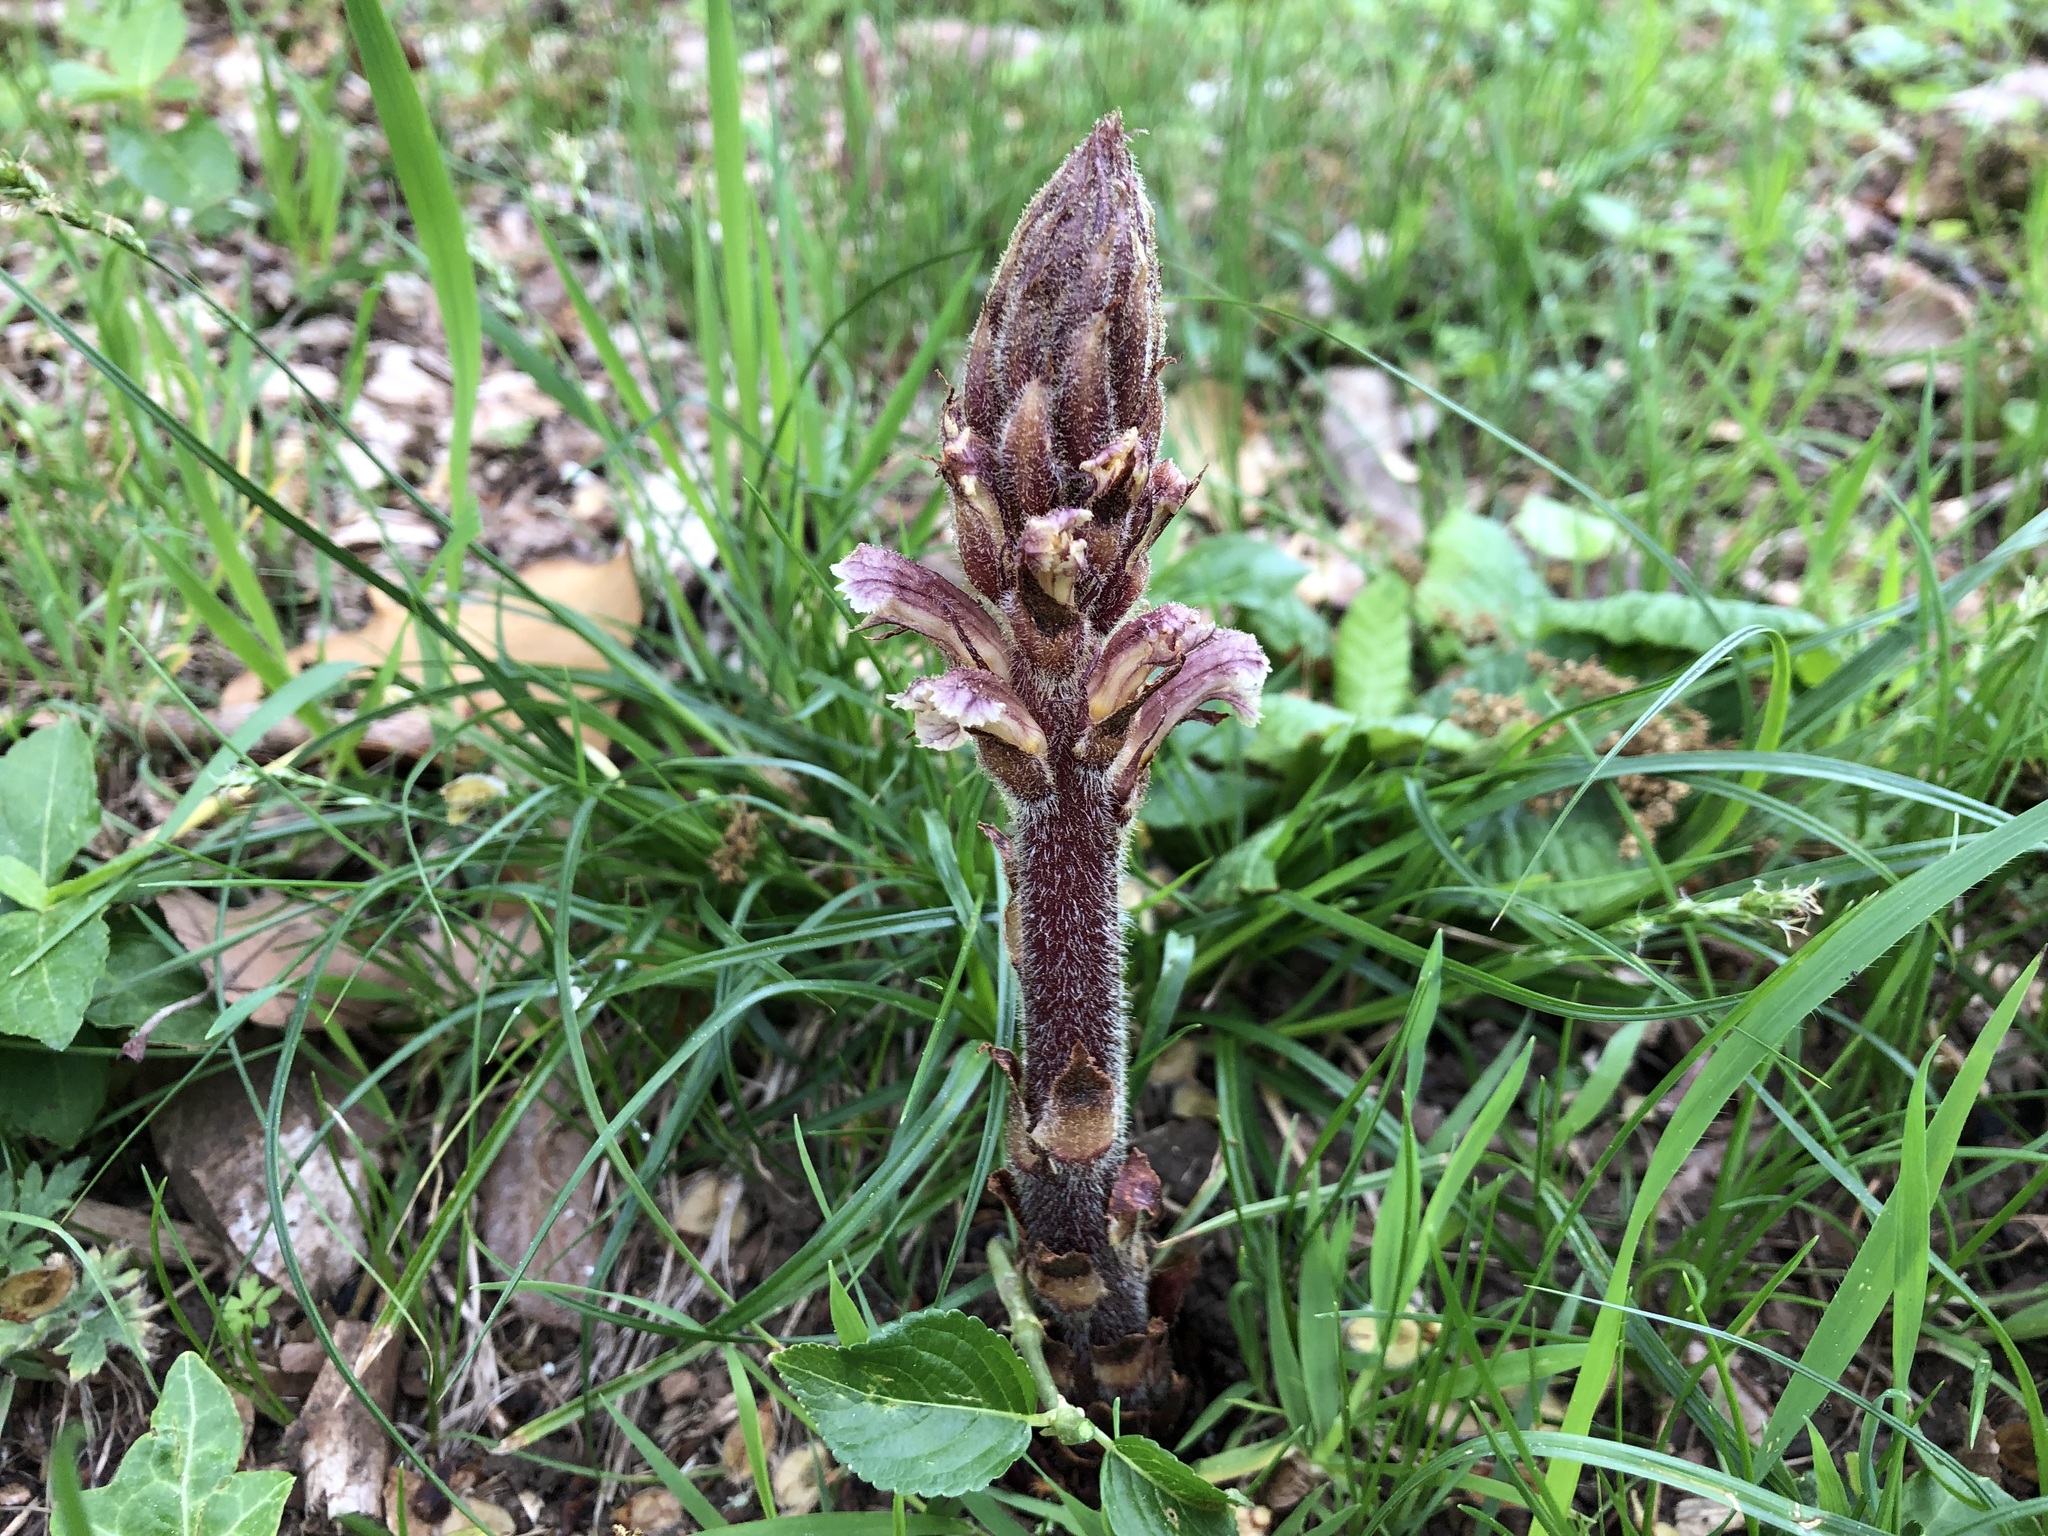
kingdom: Plantae
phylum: Tracheophyta
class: Magnoliopsida
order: Lamiales
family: Orobanchaceae
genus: Orobanche
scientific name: Orobanche hederae
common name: Ivy broomrape
